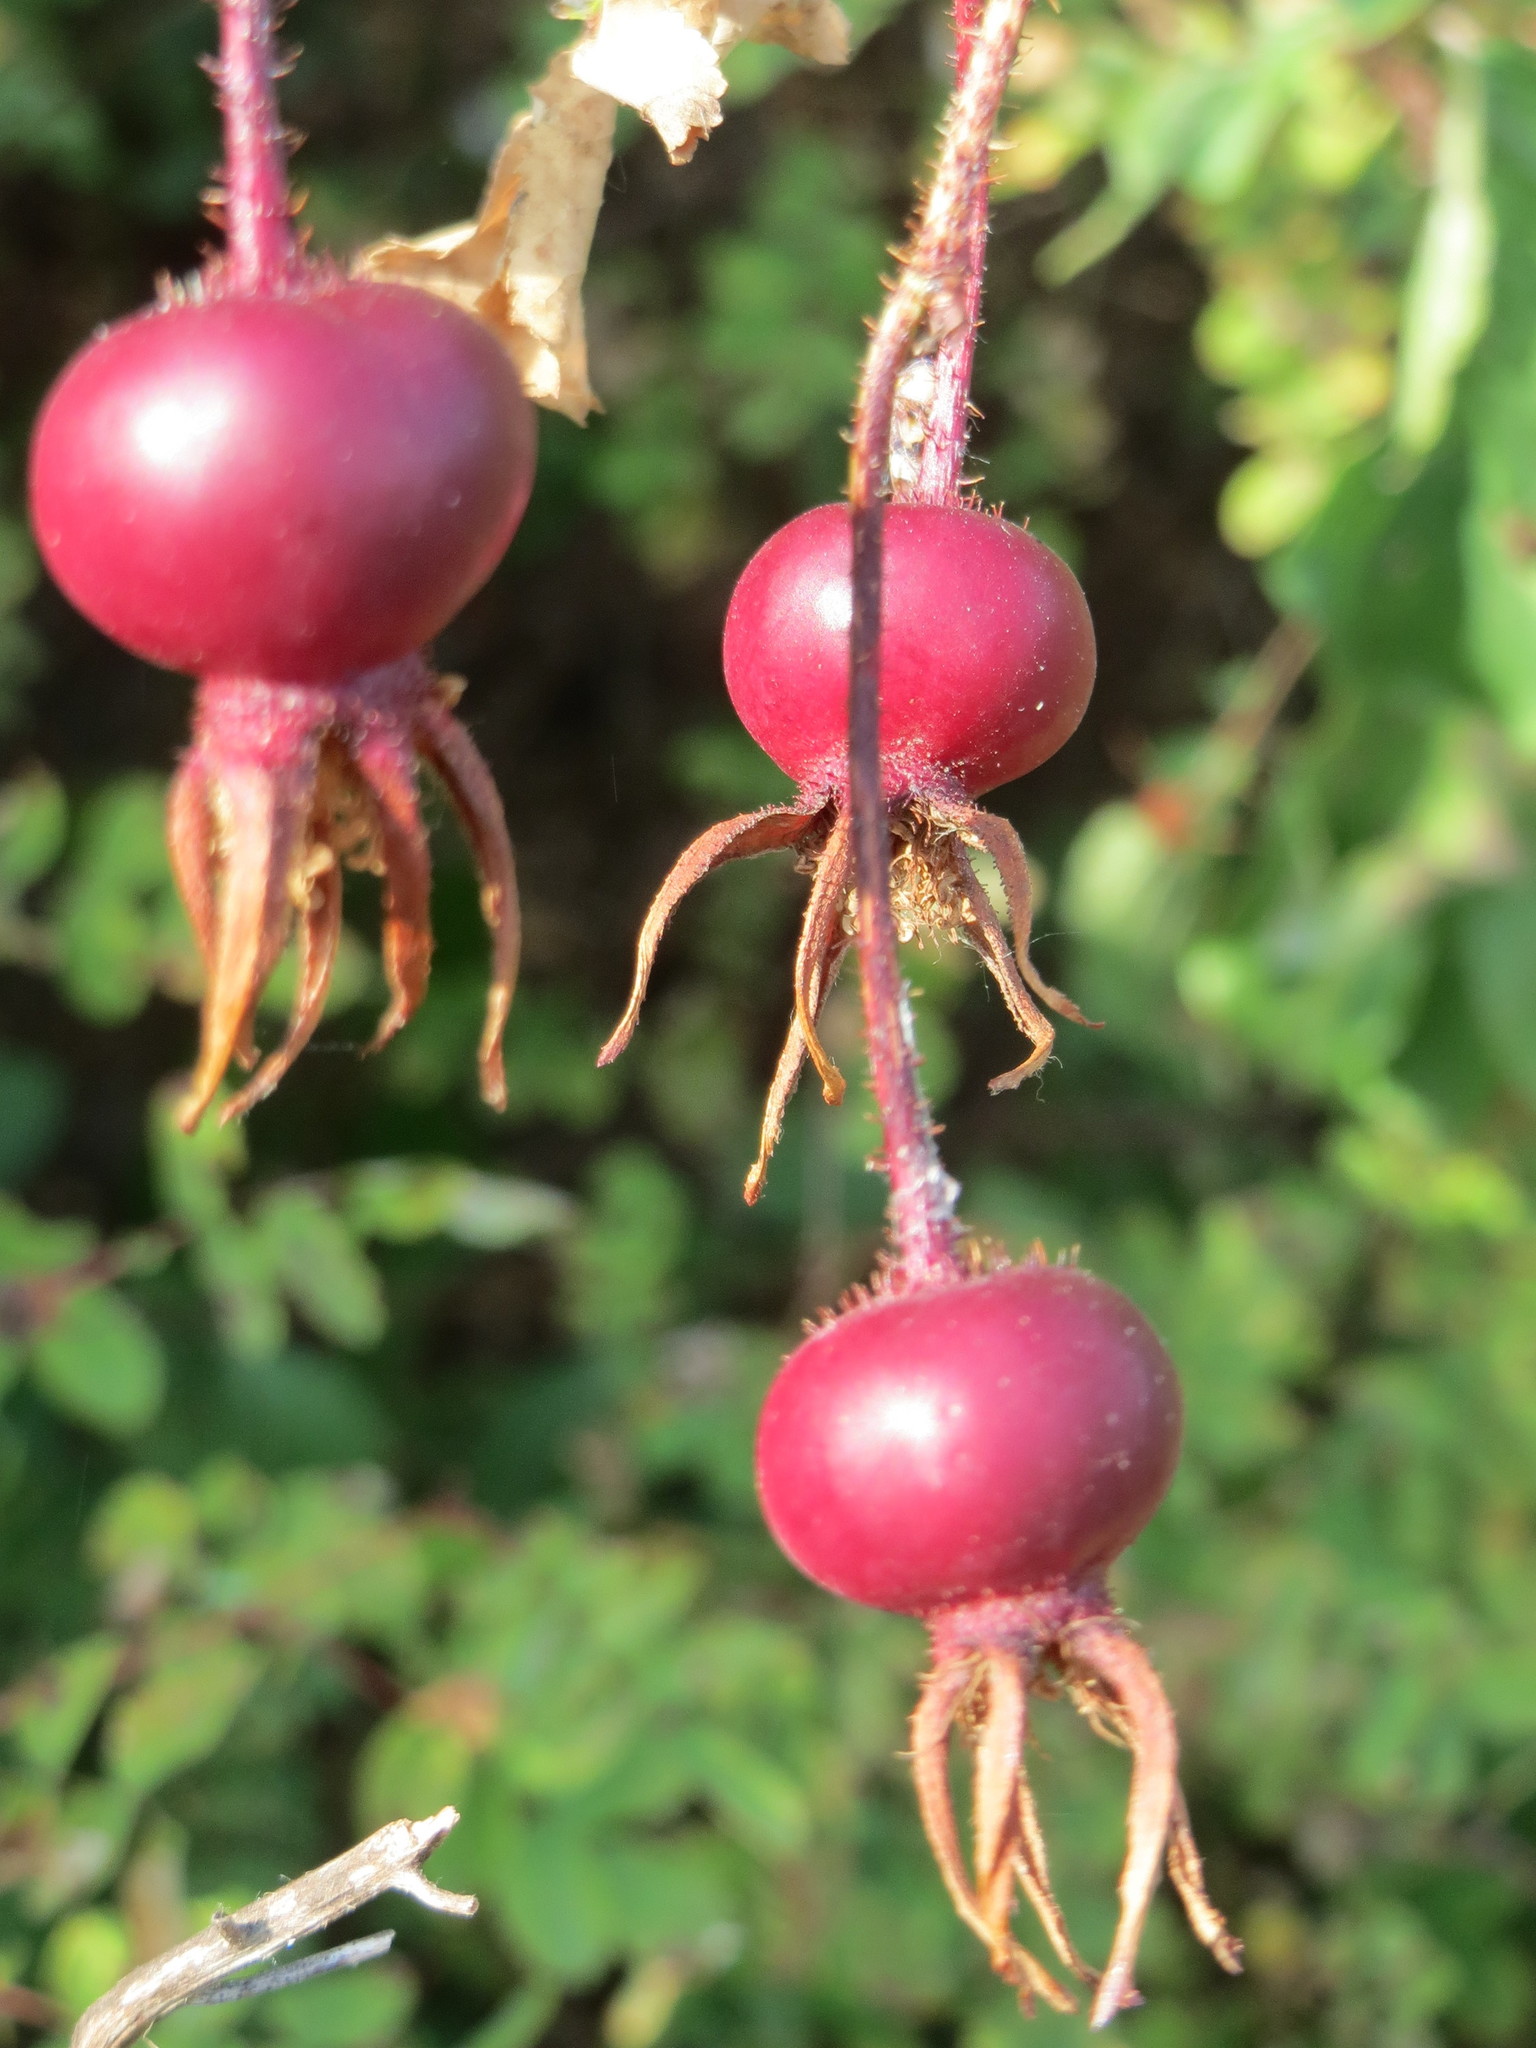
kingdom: Plantae
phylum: Tracheophyta
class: Magnoliopsida
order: Rosales
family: Rosaceae
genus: Rosa
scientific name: Rosa spinosissima
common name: Burnet rose
